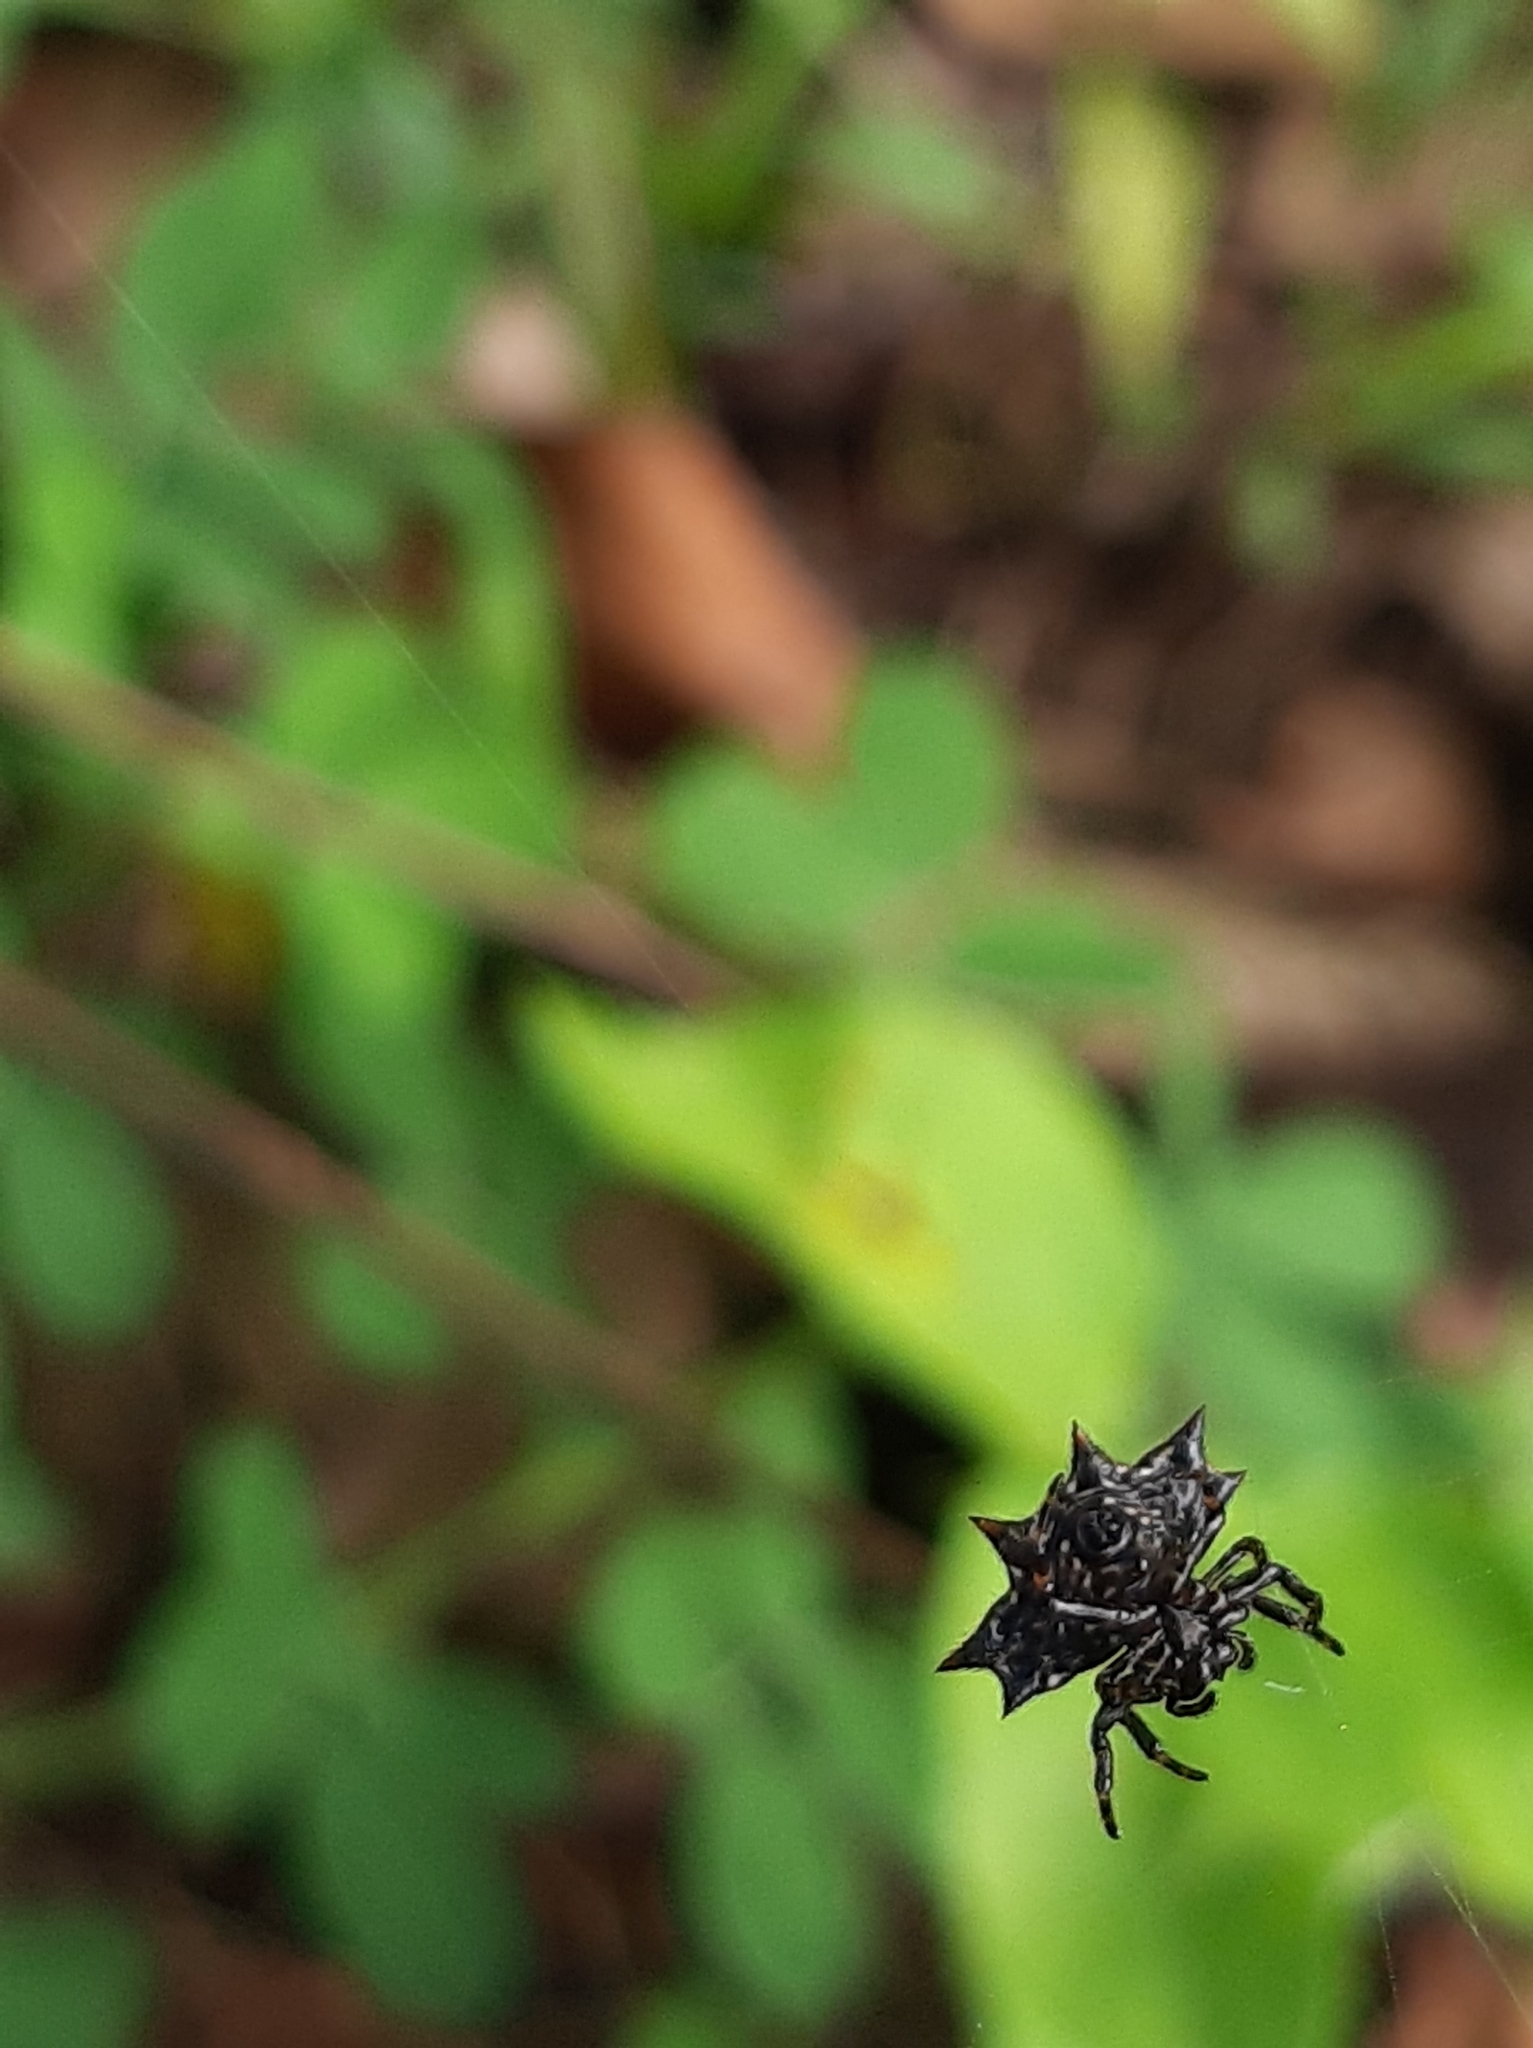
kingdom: Animalia
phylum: Arthropoda
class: Arachnida
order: Araneae
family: Araneidae
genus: Gasteracantha
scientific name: Gasteracantha cancriformis
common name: Orb weavers
